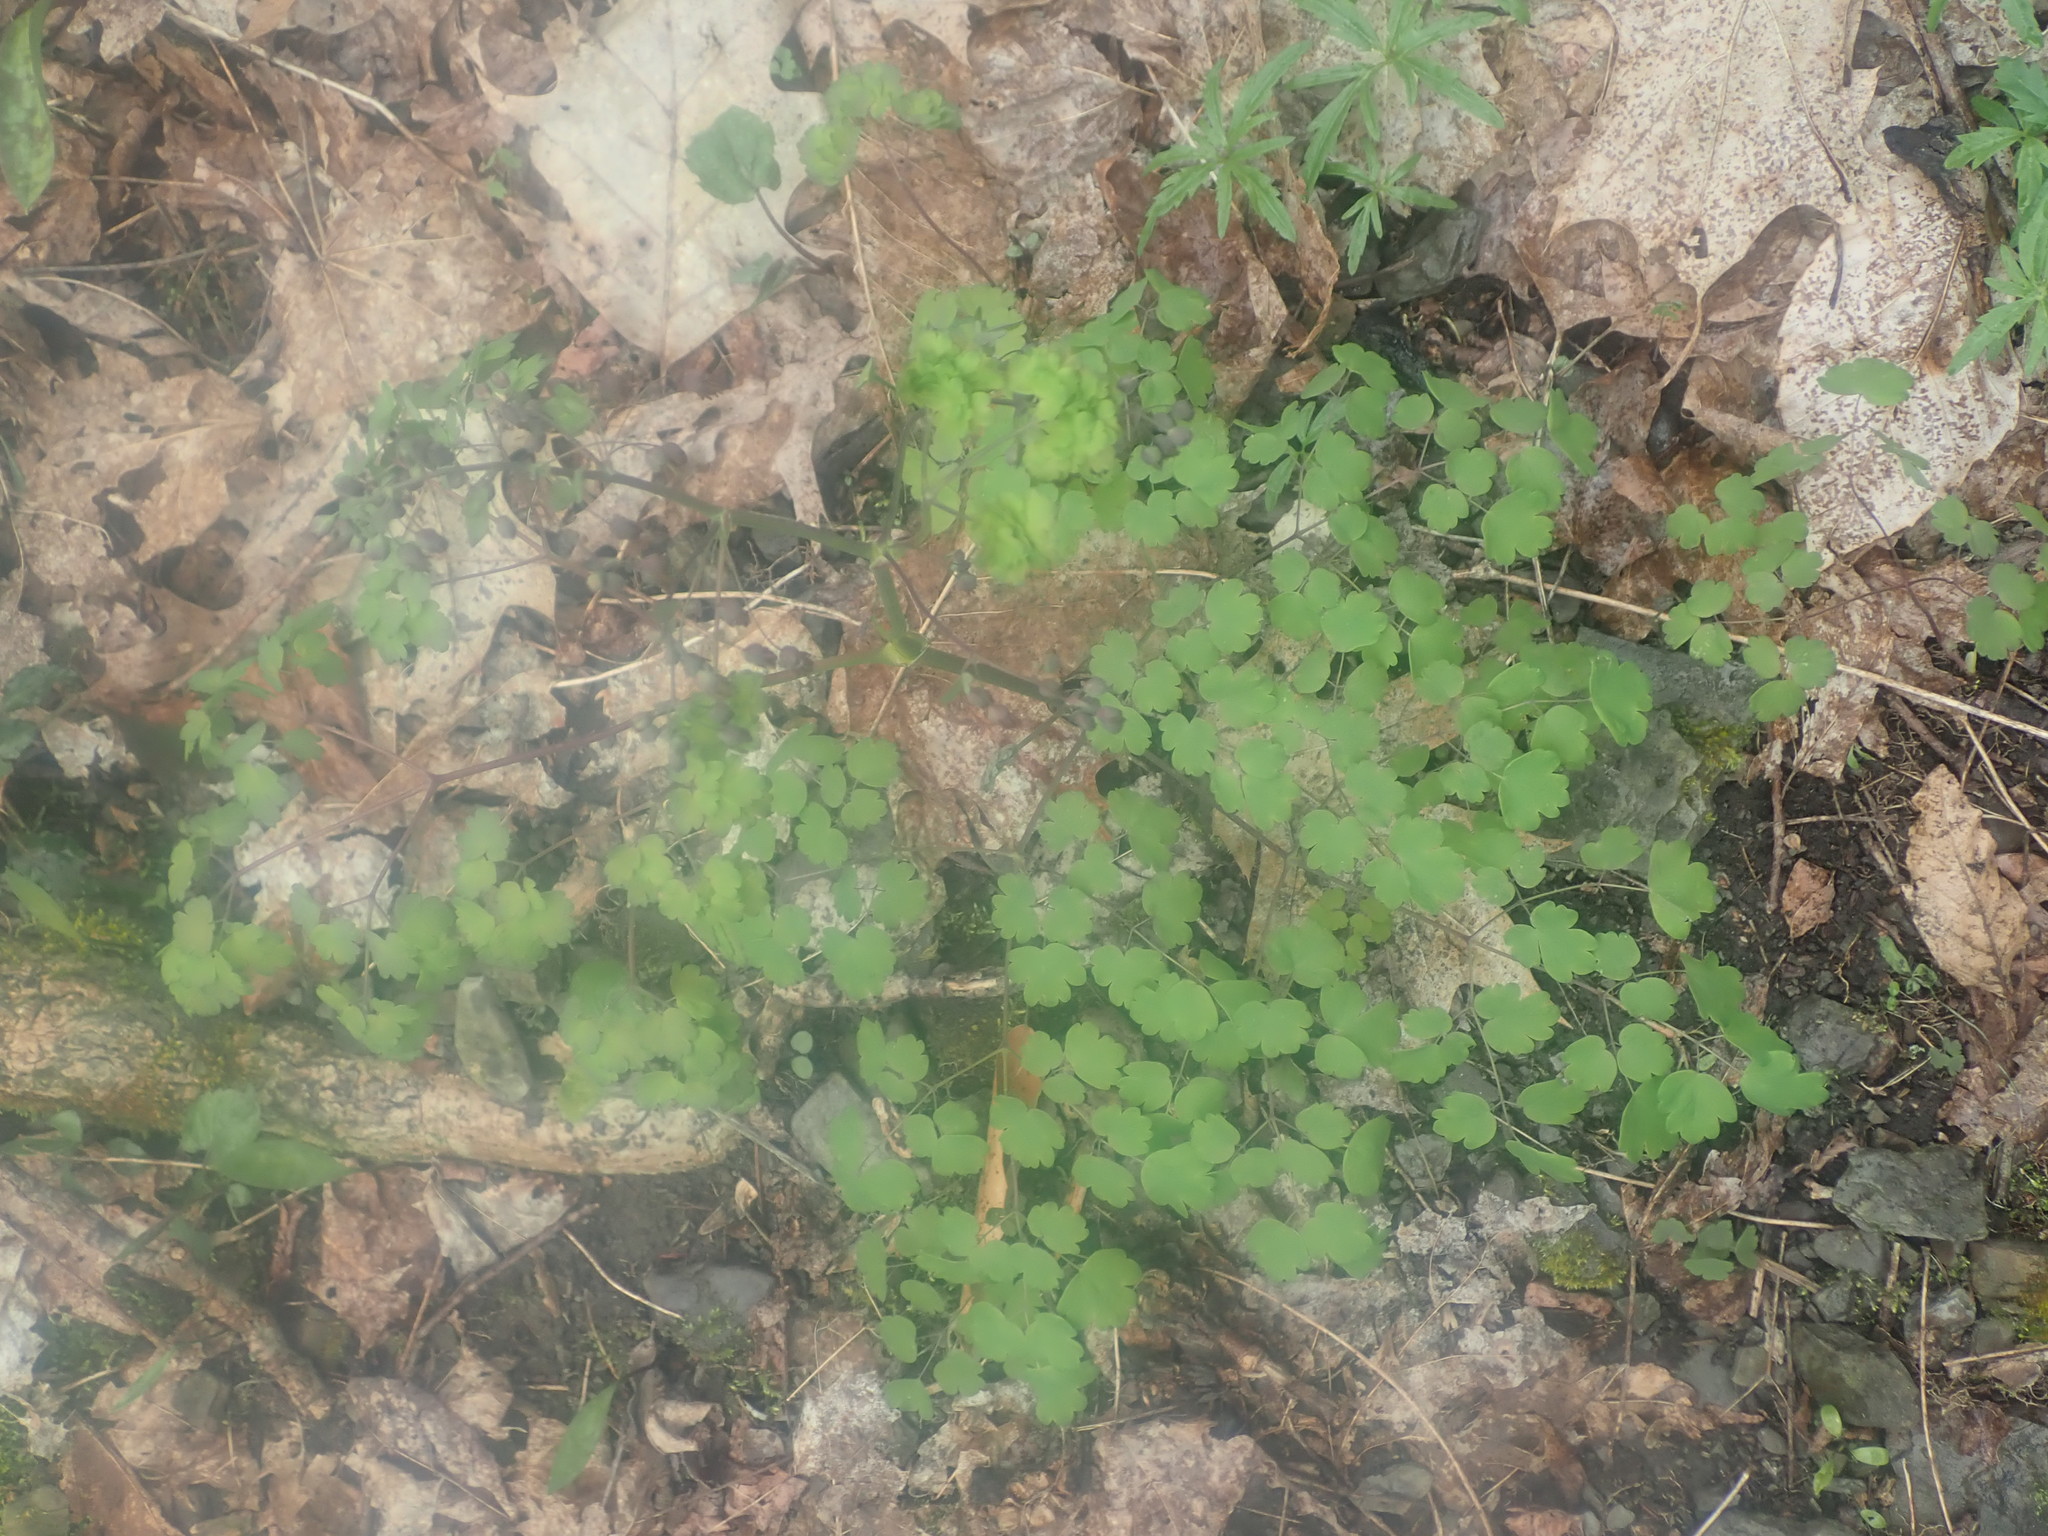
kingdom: Plantae
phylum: Tracheophyta
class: Magnoliopsida
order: Ranunculales
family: Ranunculaceae
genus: Thalictrum
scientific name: Thalictrum dioicum
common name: Early meadow-rue
